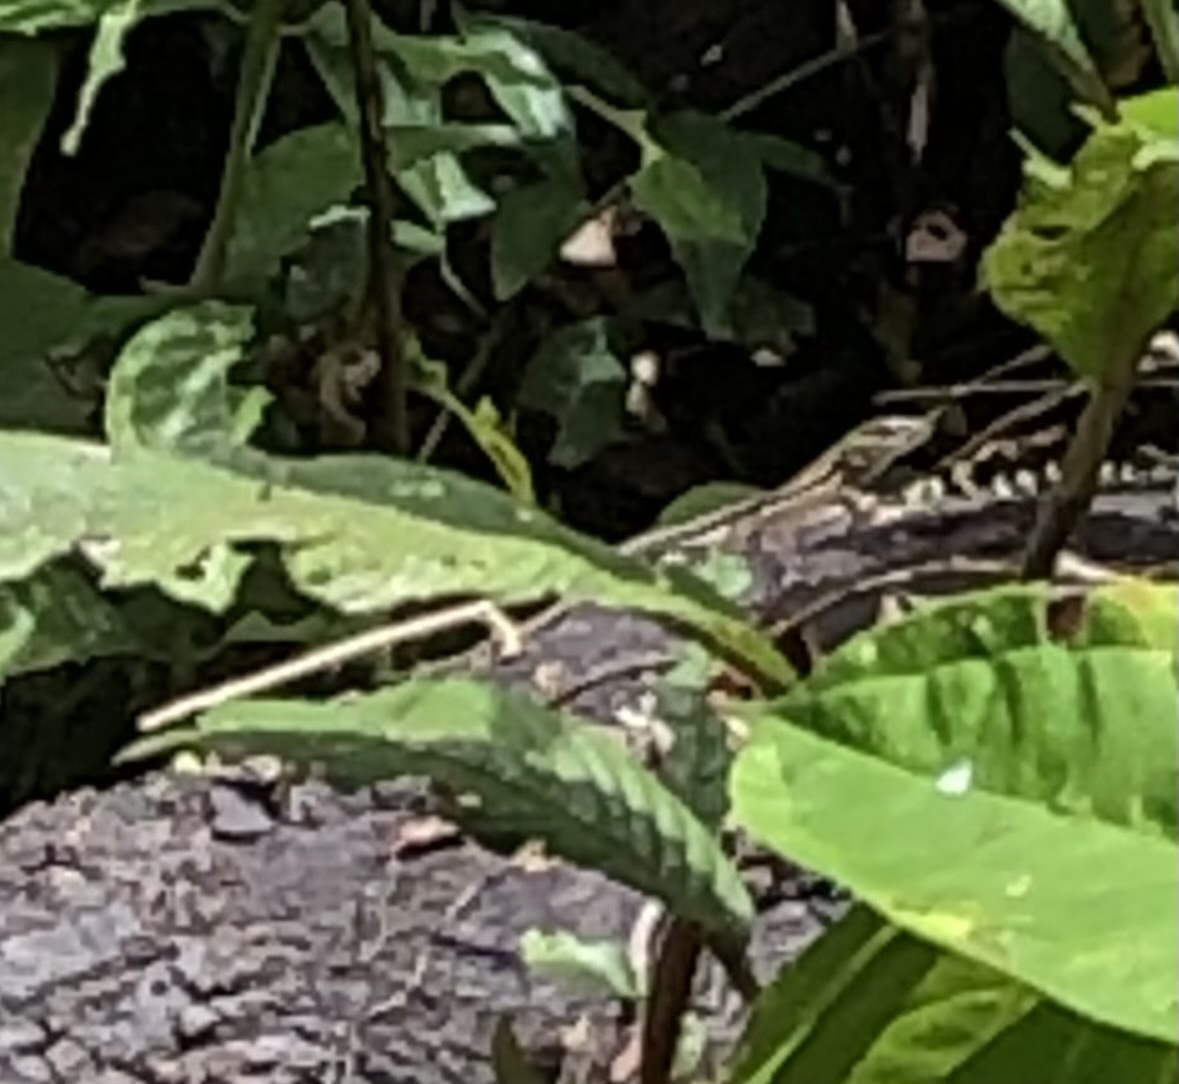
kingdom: Animalia
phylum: Chordata
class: Squamata
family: Teiidae
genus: Kentropyx
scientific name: Kentropyx altamazonica
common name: Cocha whiptail
